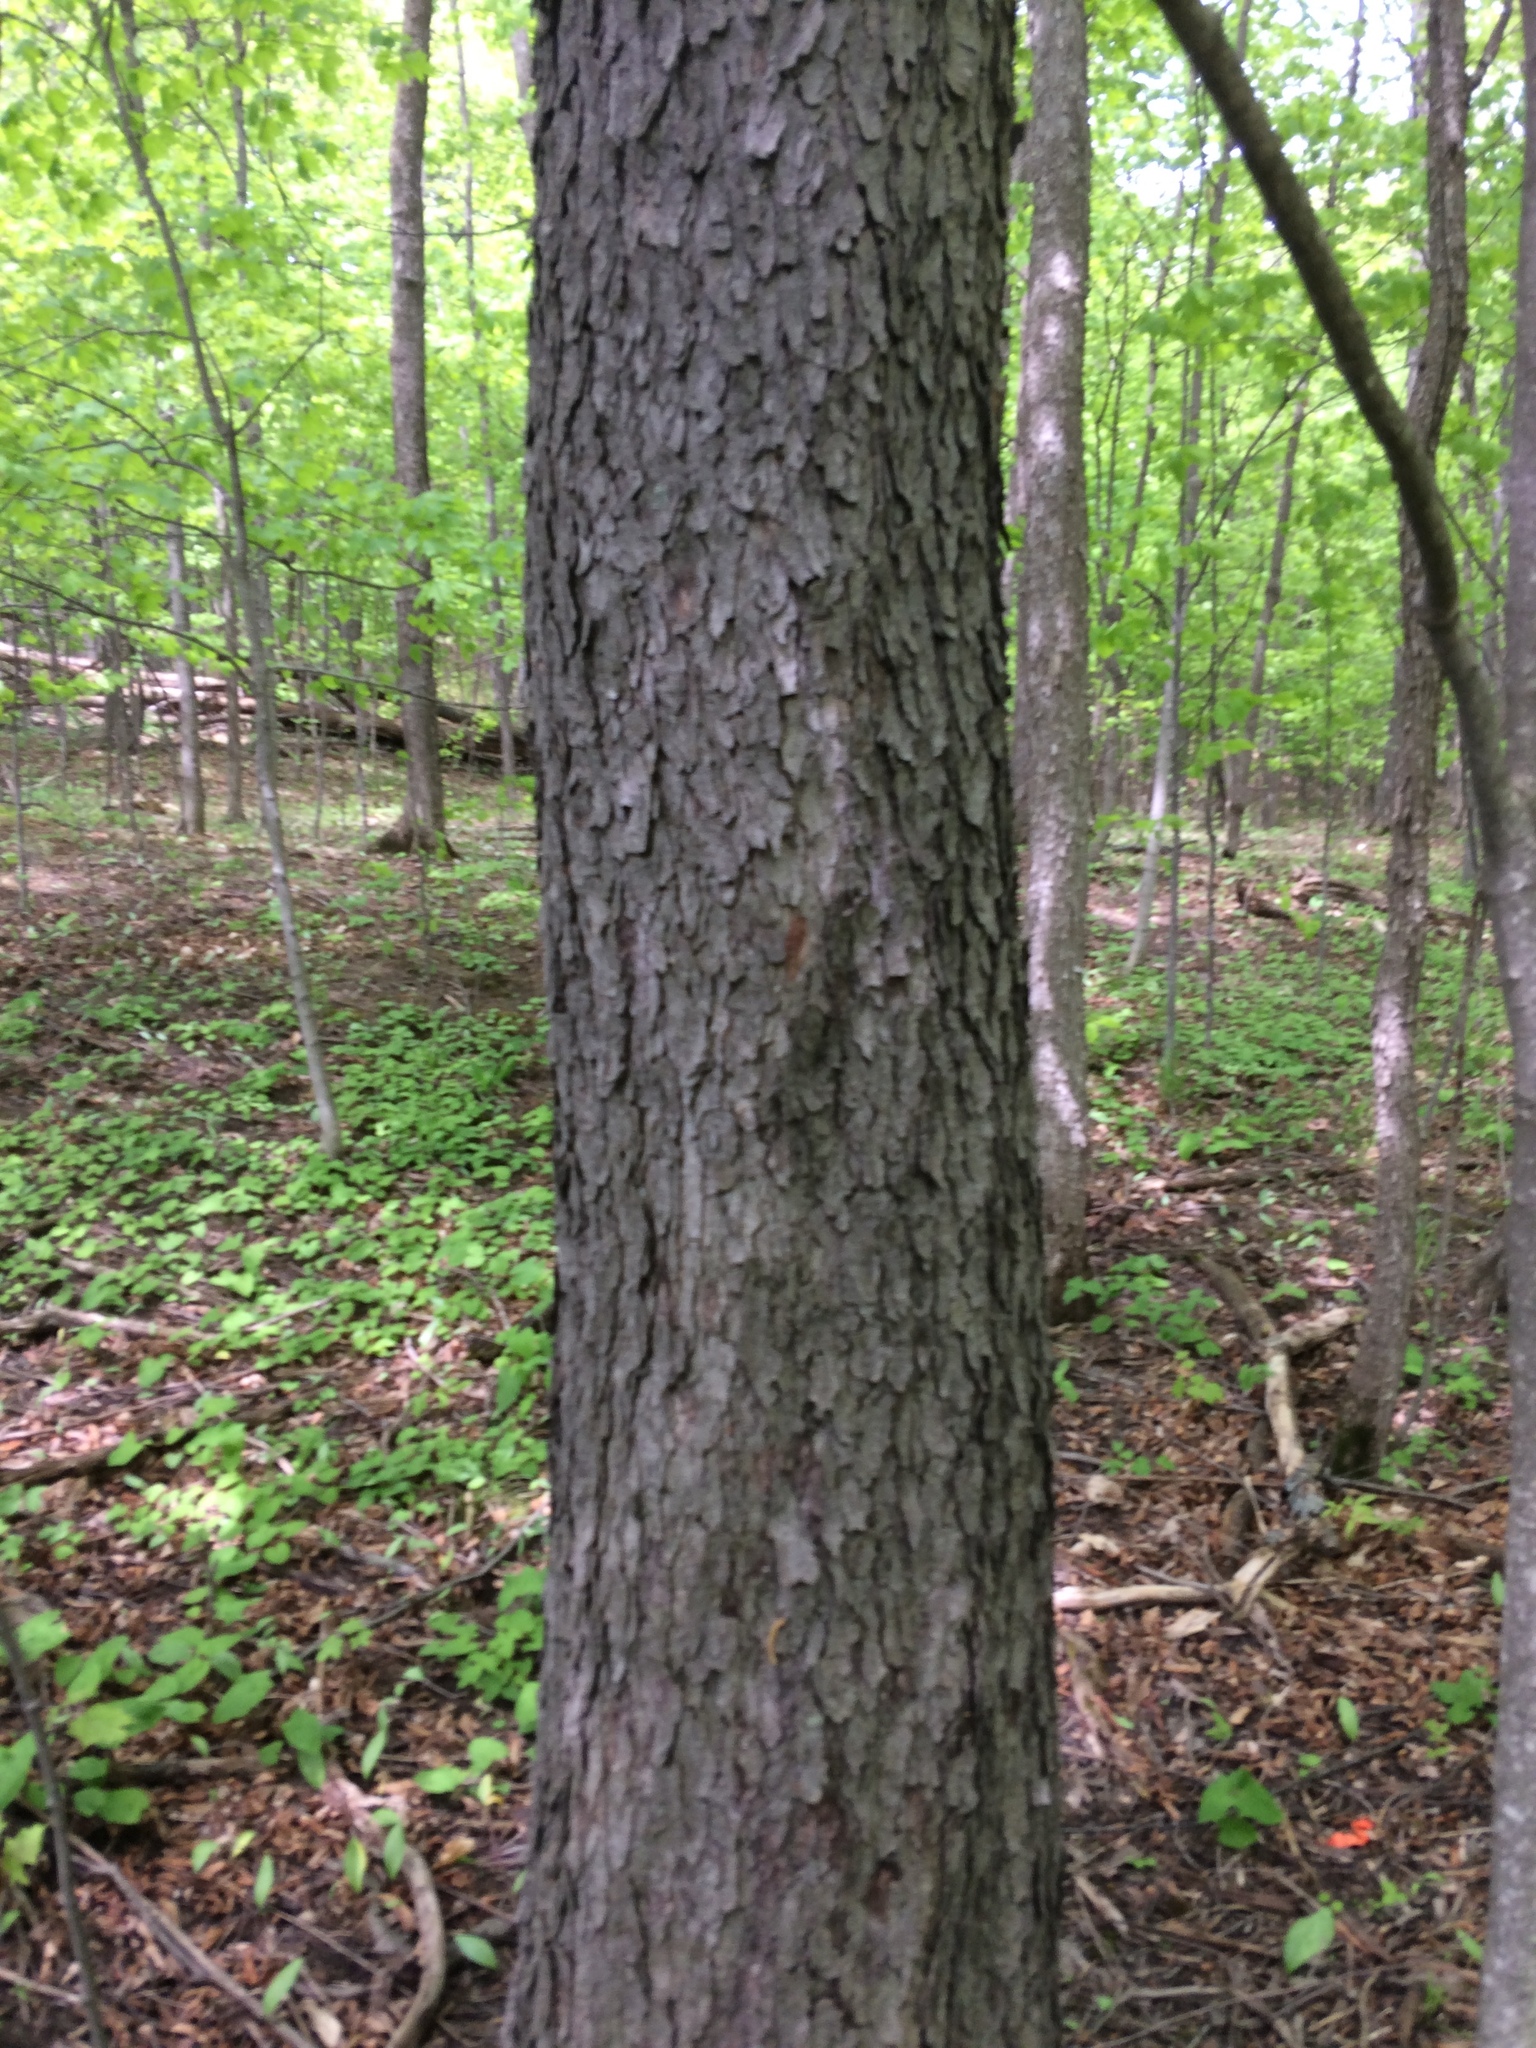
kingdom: Plantae
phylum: Tracheophyta
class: Magnoliopsida
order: Rosales
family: Rosaceae
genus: Prunus
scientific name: Prunus serotina
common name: Black cherry
